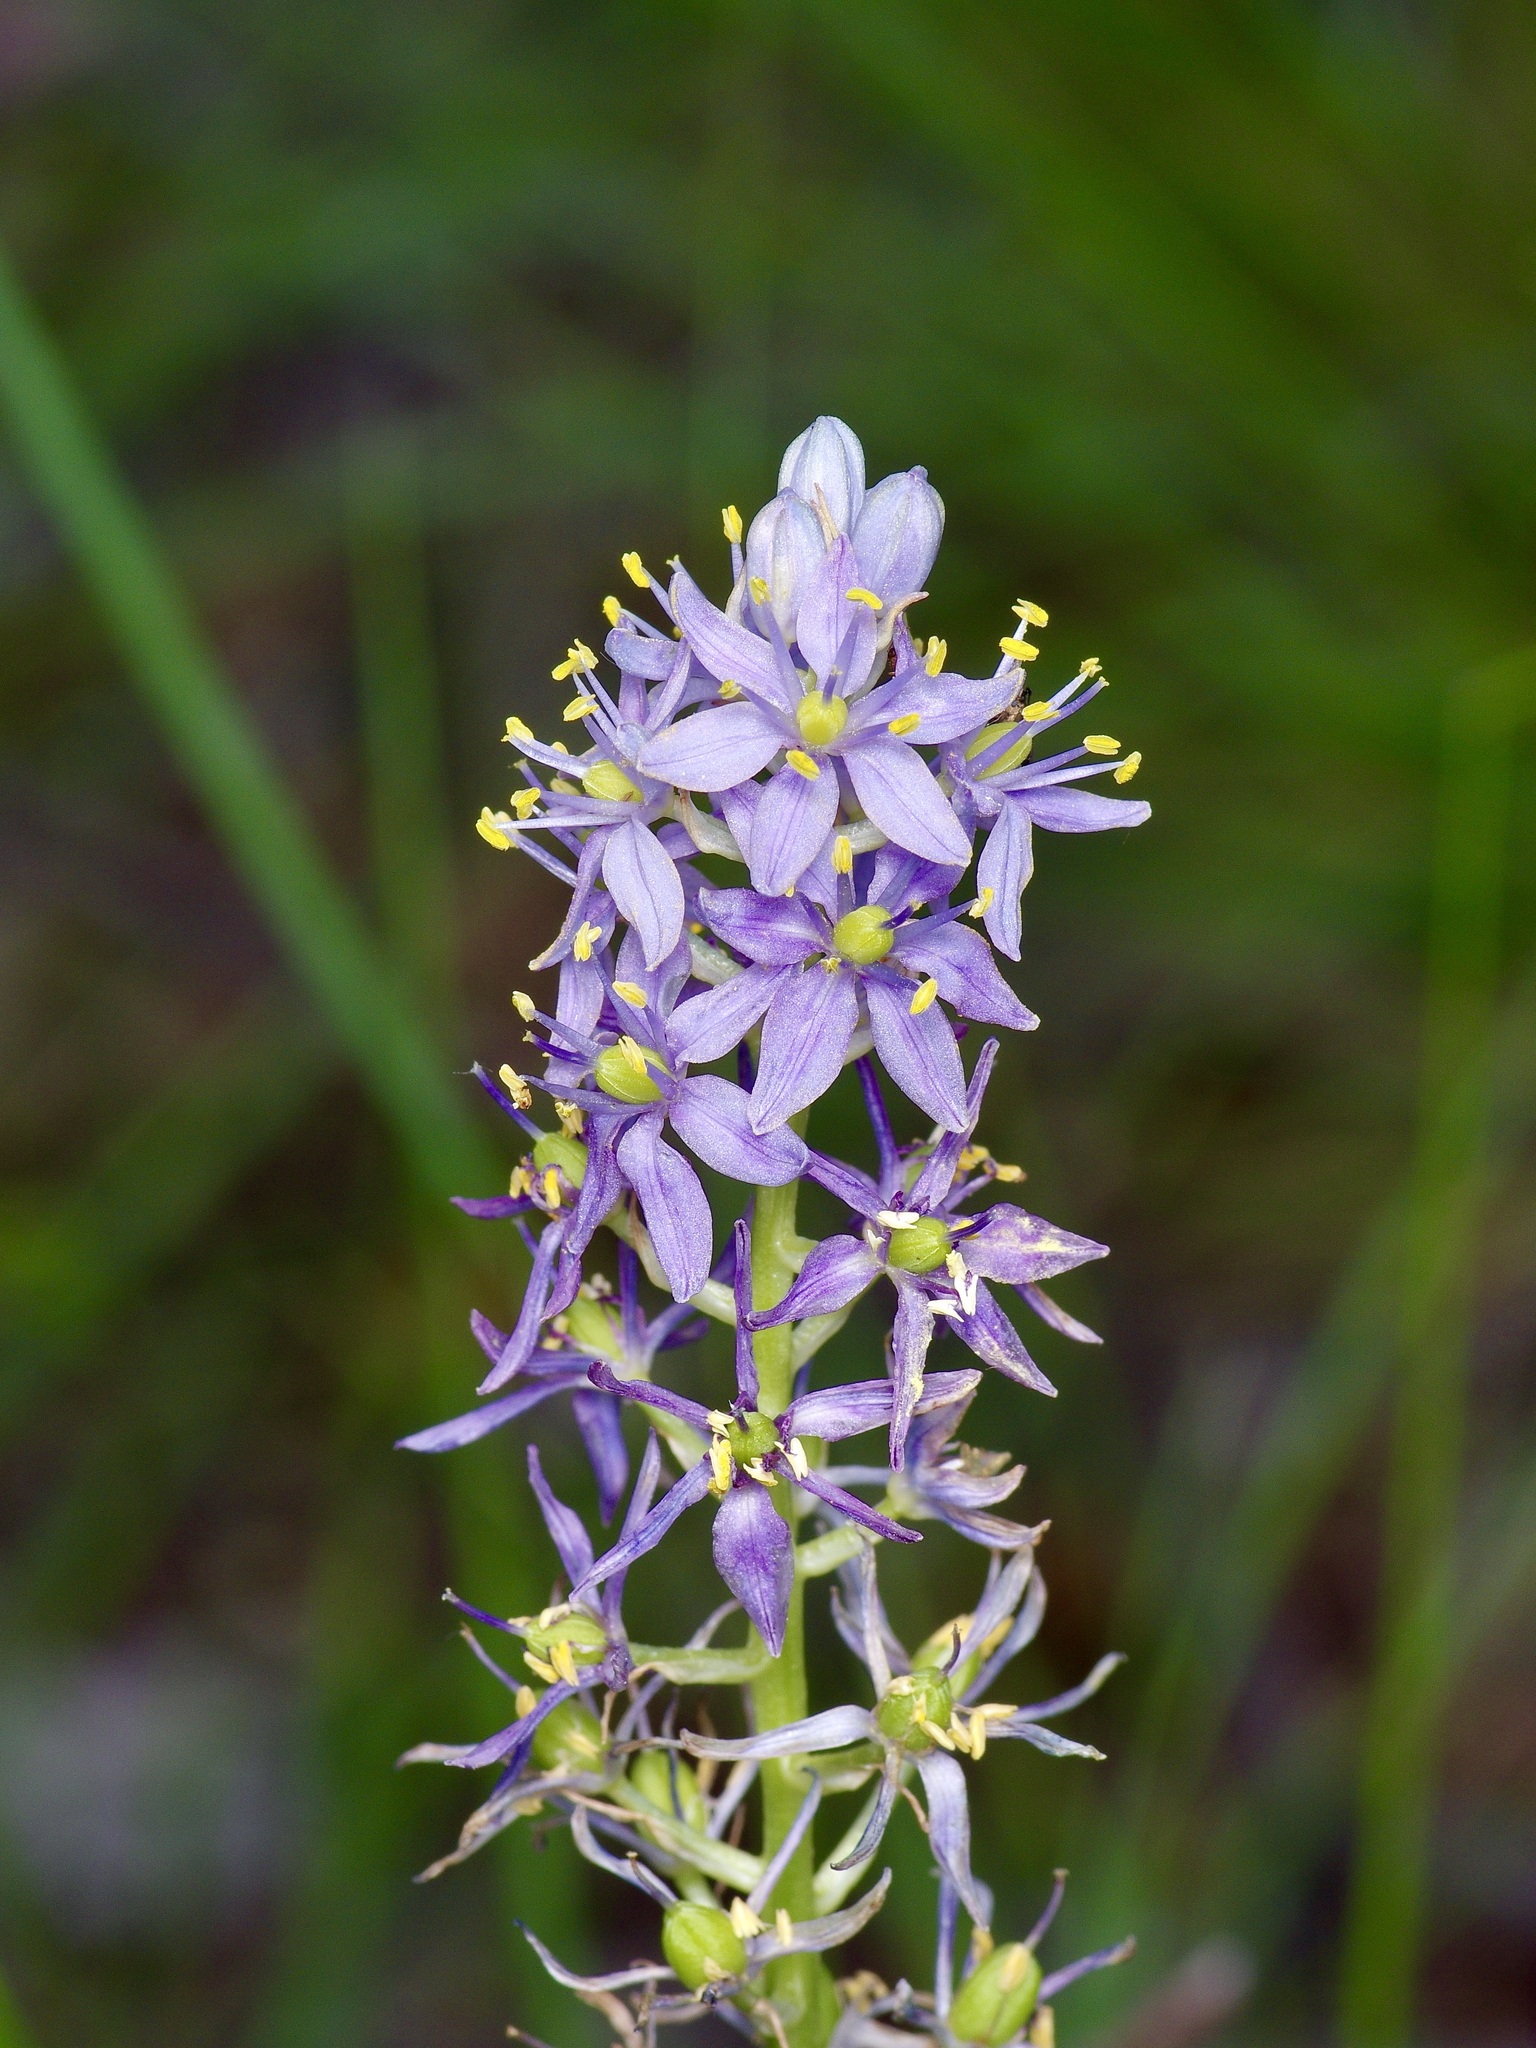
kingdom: Plantae
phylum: Tracheophyta
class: Liliopsida
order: Asparagales
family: Asparagaceae
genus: Camassia
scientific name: Camassia scilloides
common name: Wild hyacinth
